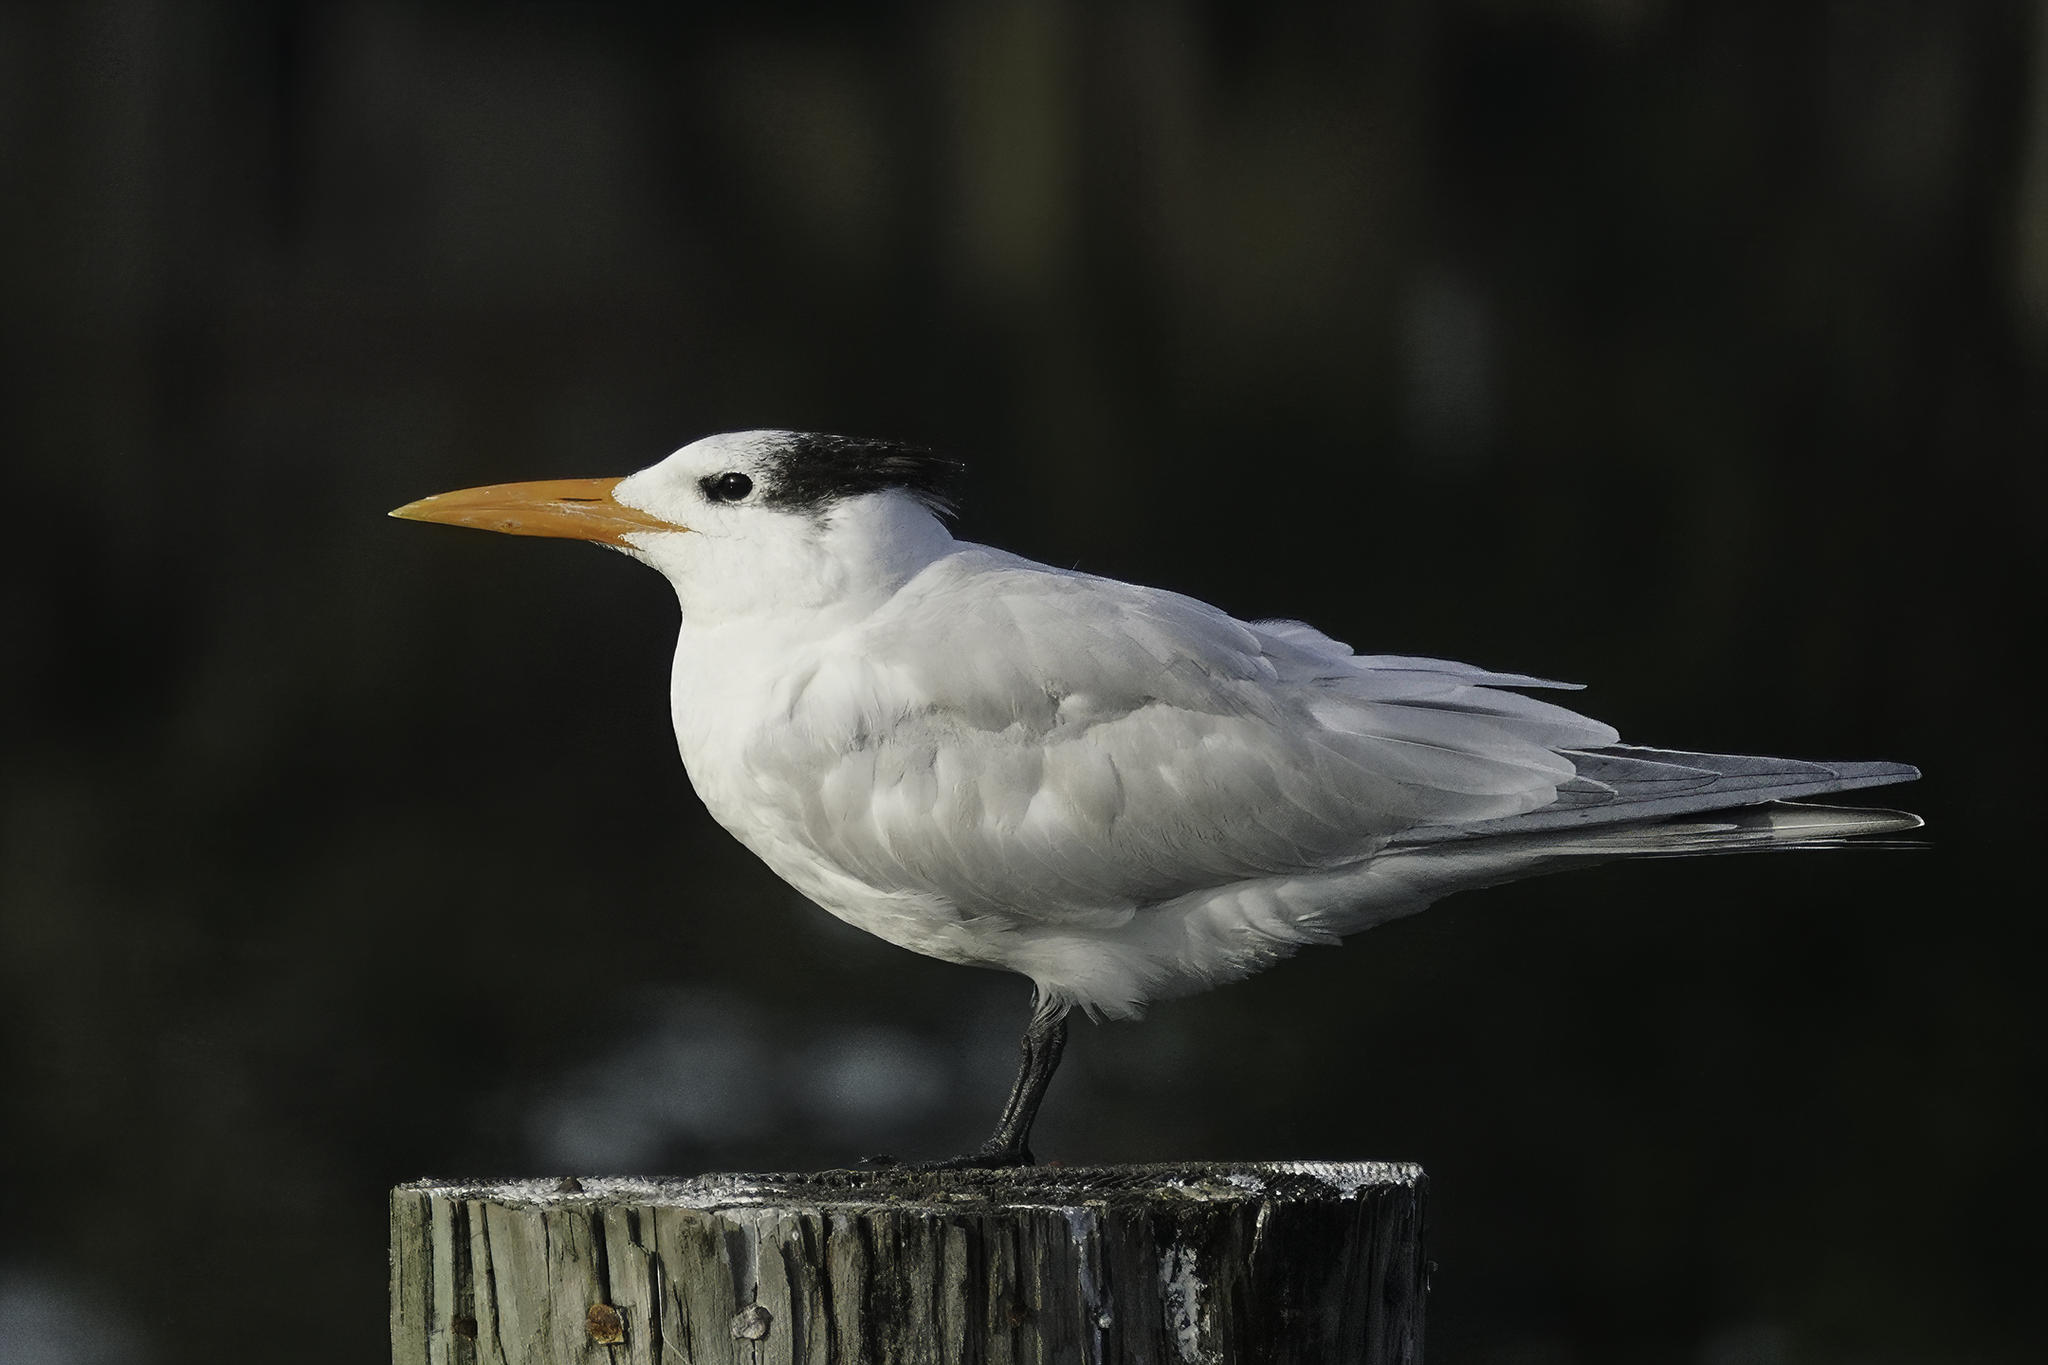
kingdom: Animalia
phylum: Chordata
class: Aves
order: Charadriiformes
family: Laridae
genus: Thalasseus
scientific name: Thalasseus maximus
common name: Royal tern
